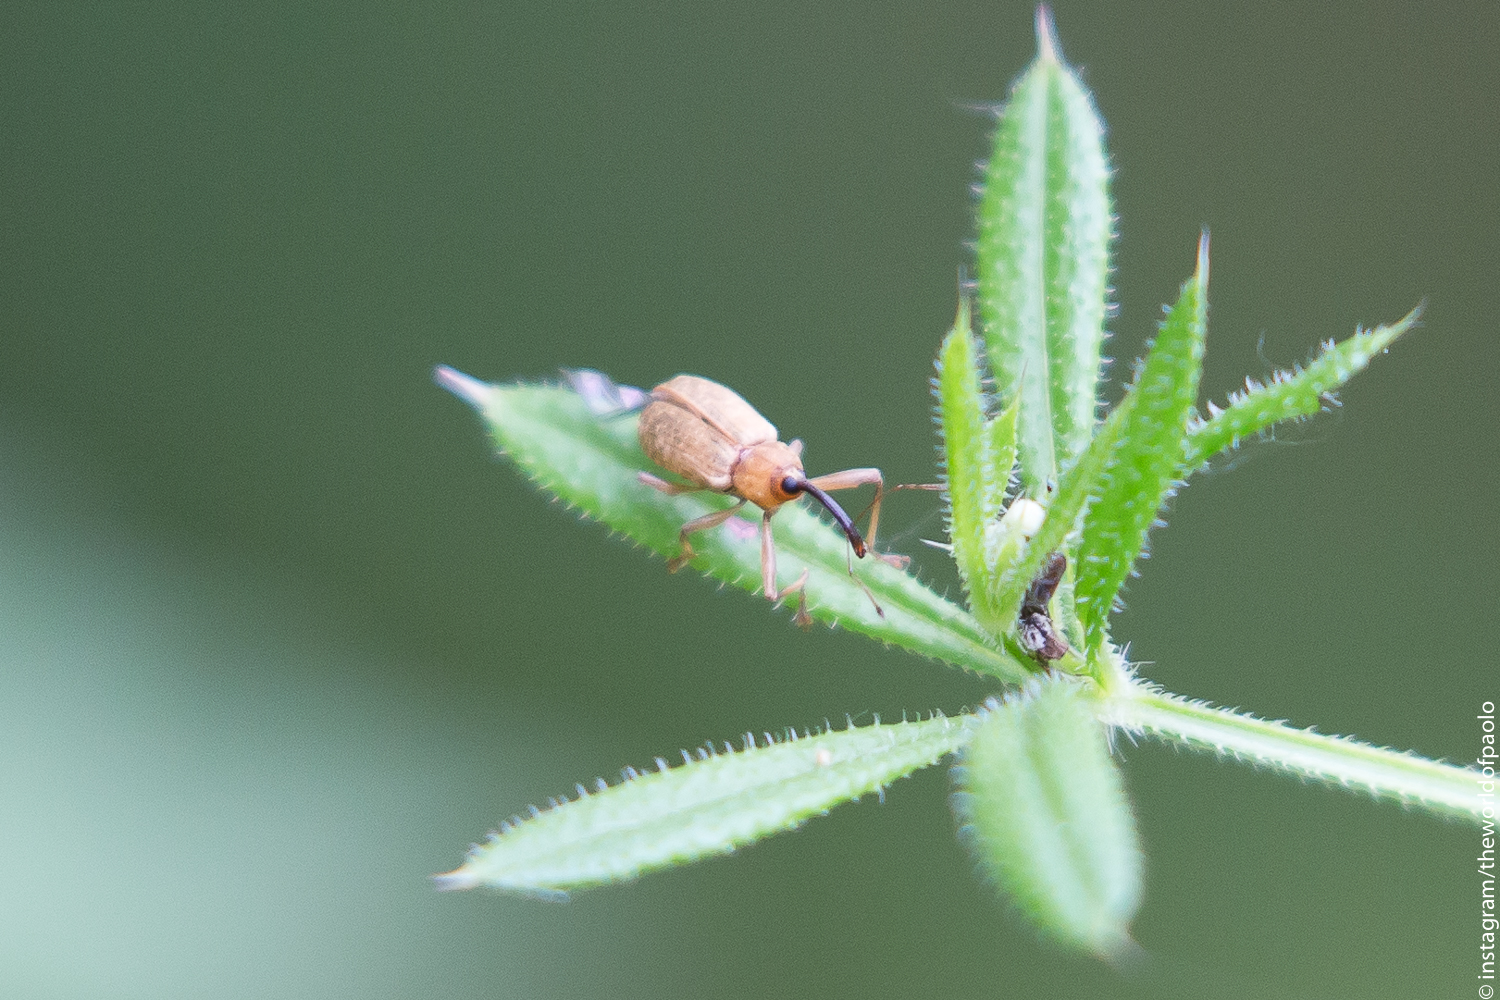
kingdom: Animalia
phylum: Arthropoda
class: Insecta
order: Coleoptera
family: Curculionidae
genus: Dorytomus
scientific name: Dorytomus longimanus
